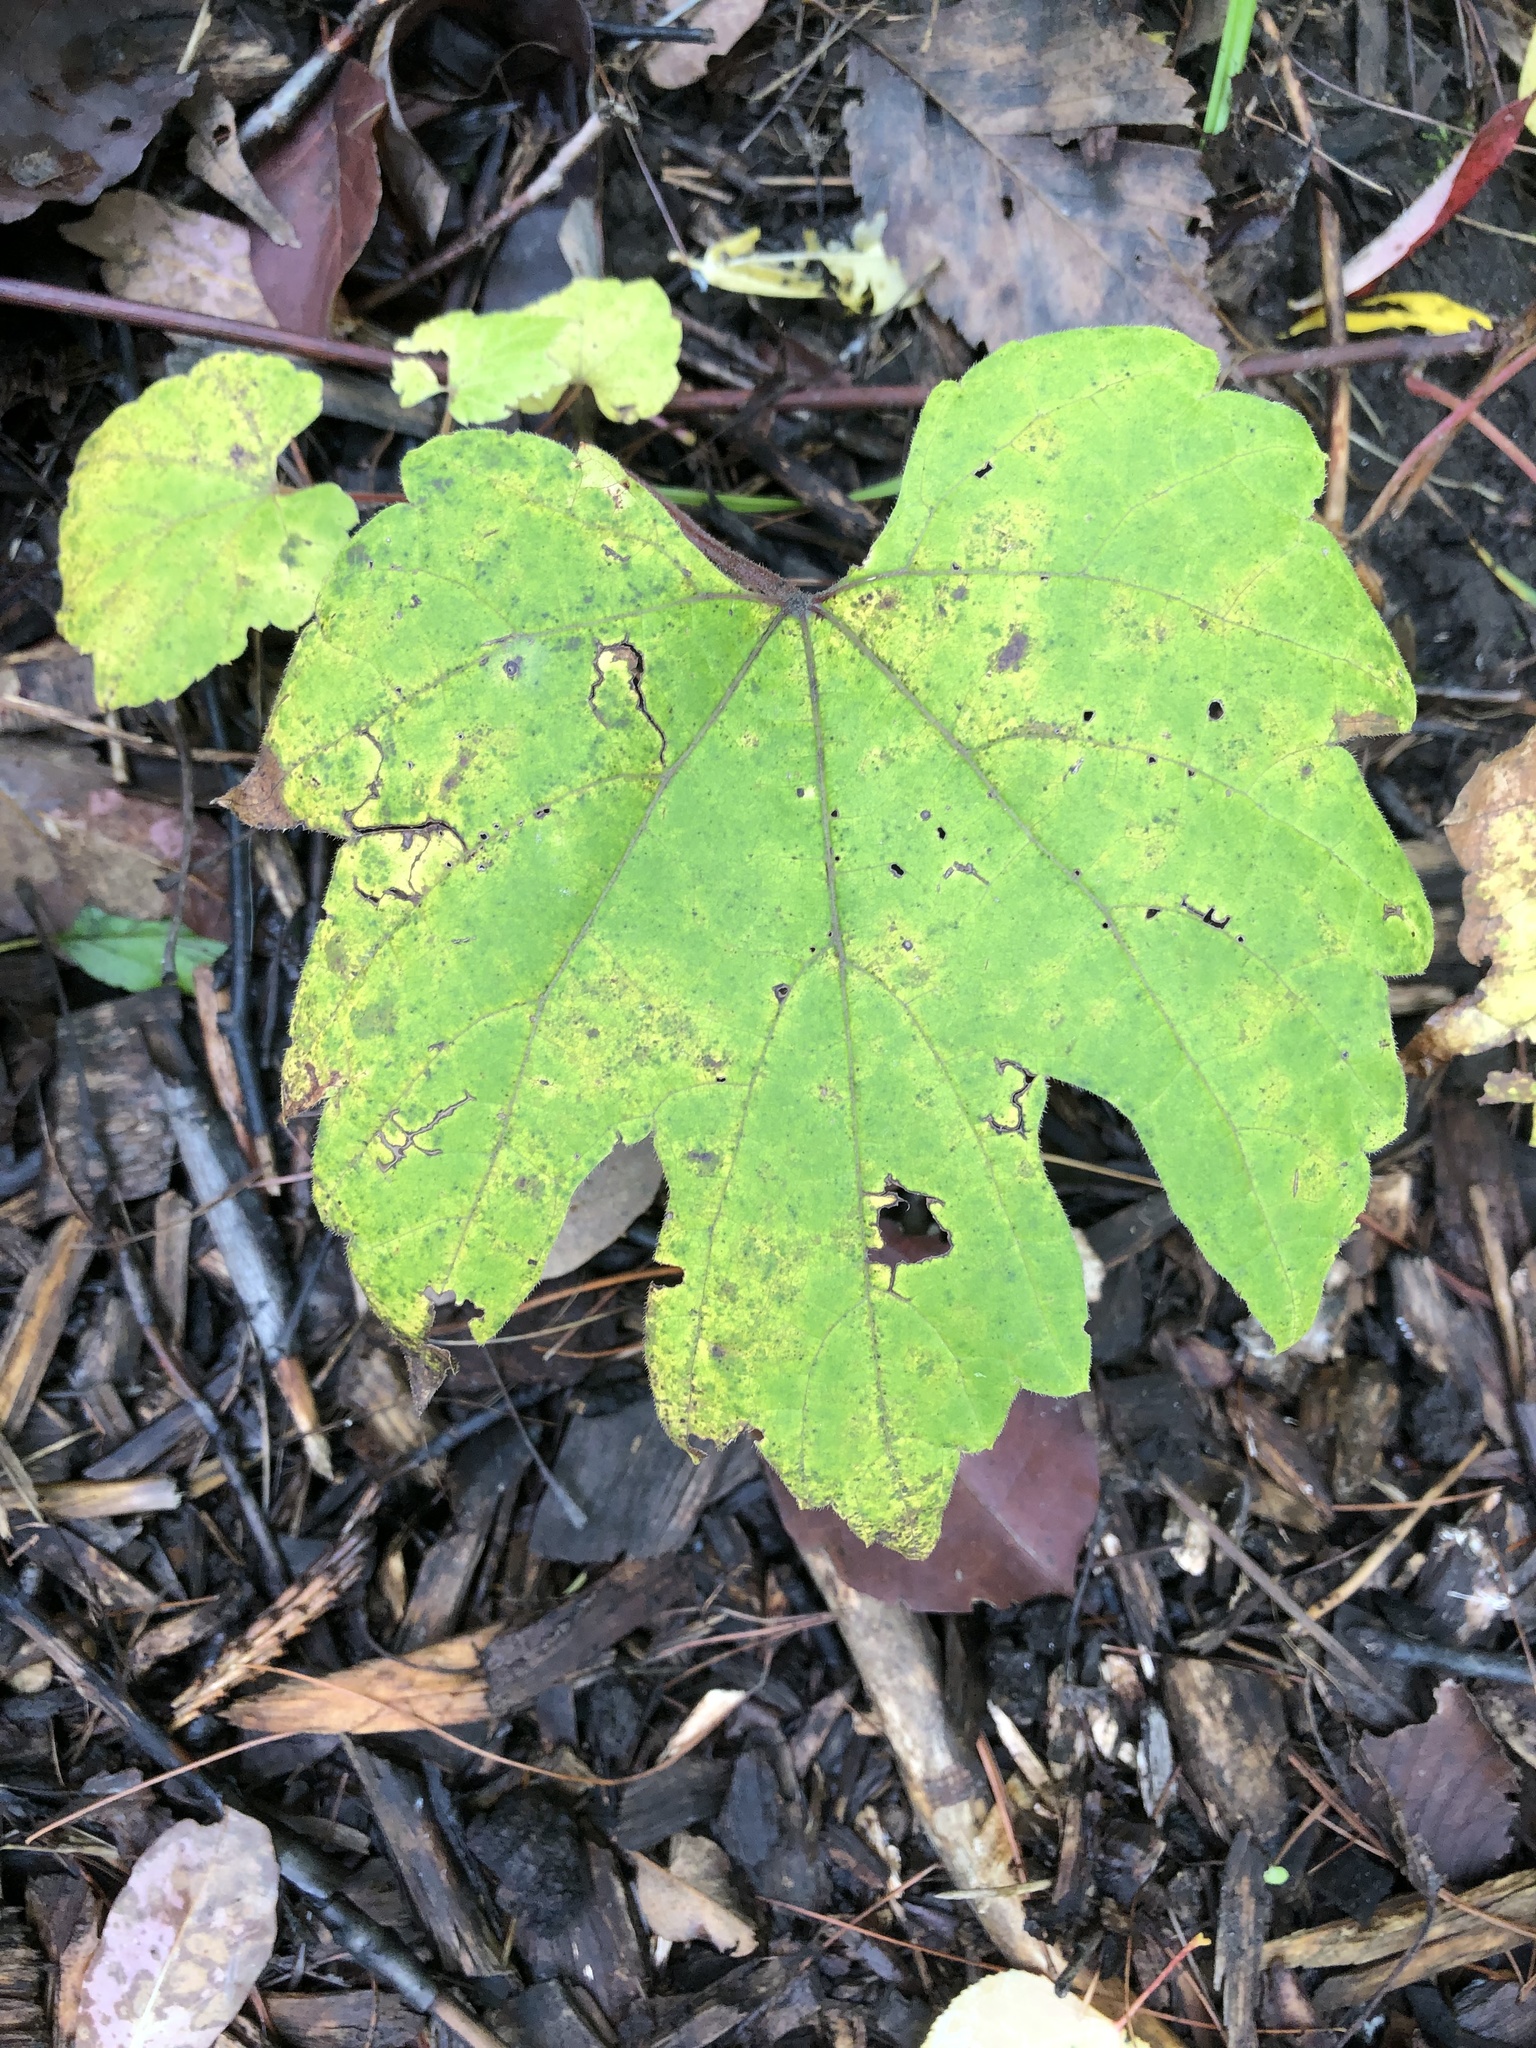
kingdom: Plantae
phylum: Tracheophyta
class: Magnoliopsida
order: Vitales
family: Vitaceae
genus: Vitis
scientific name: Vitis riparia
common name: Frost grape
